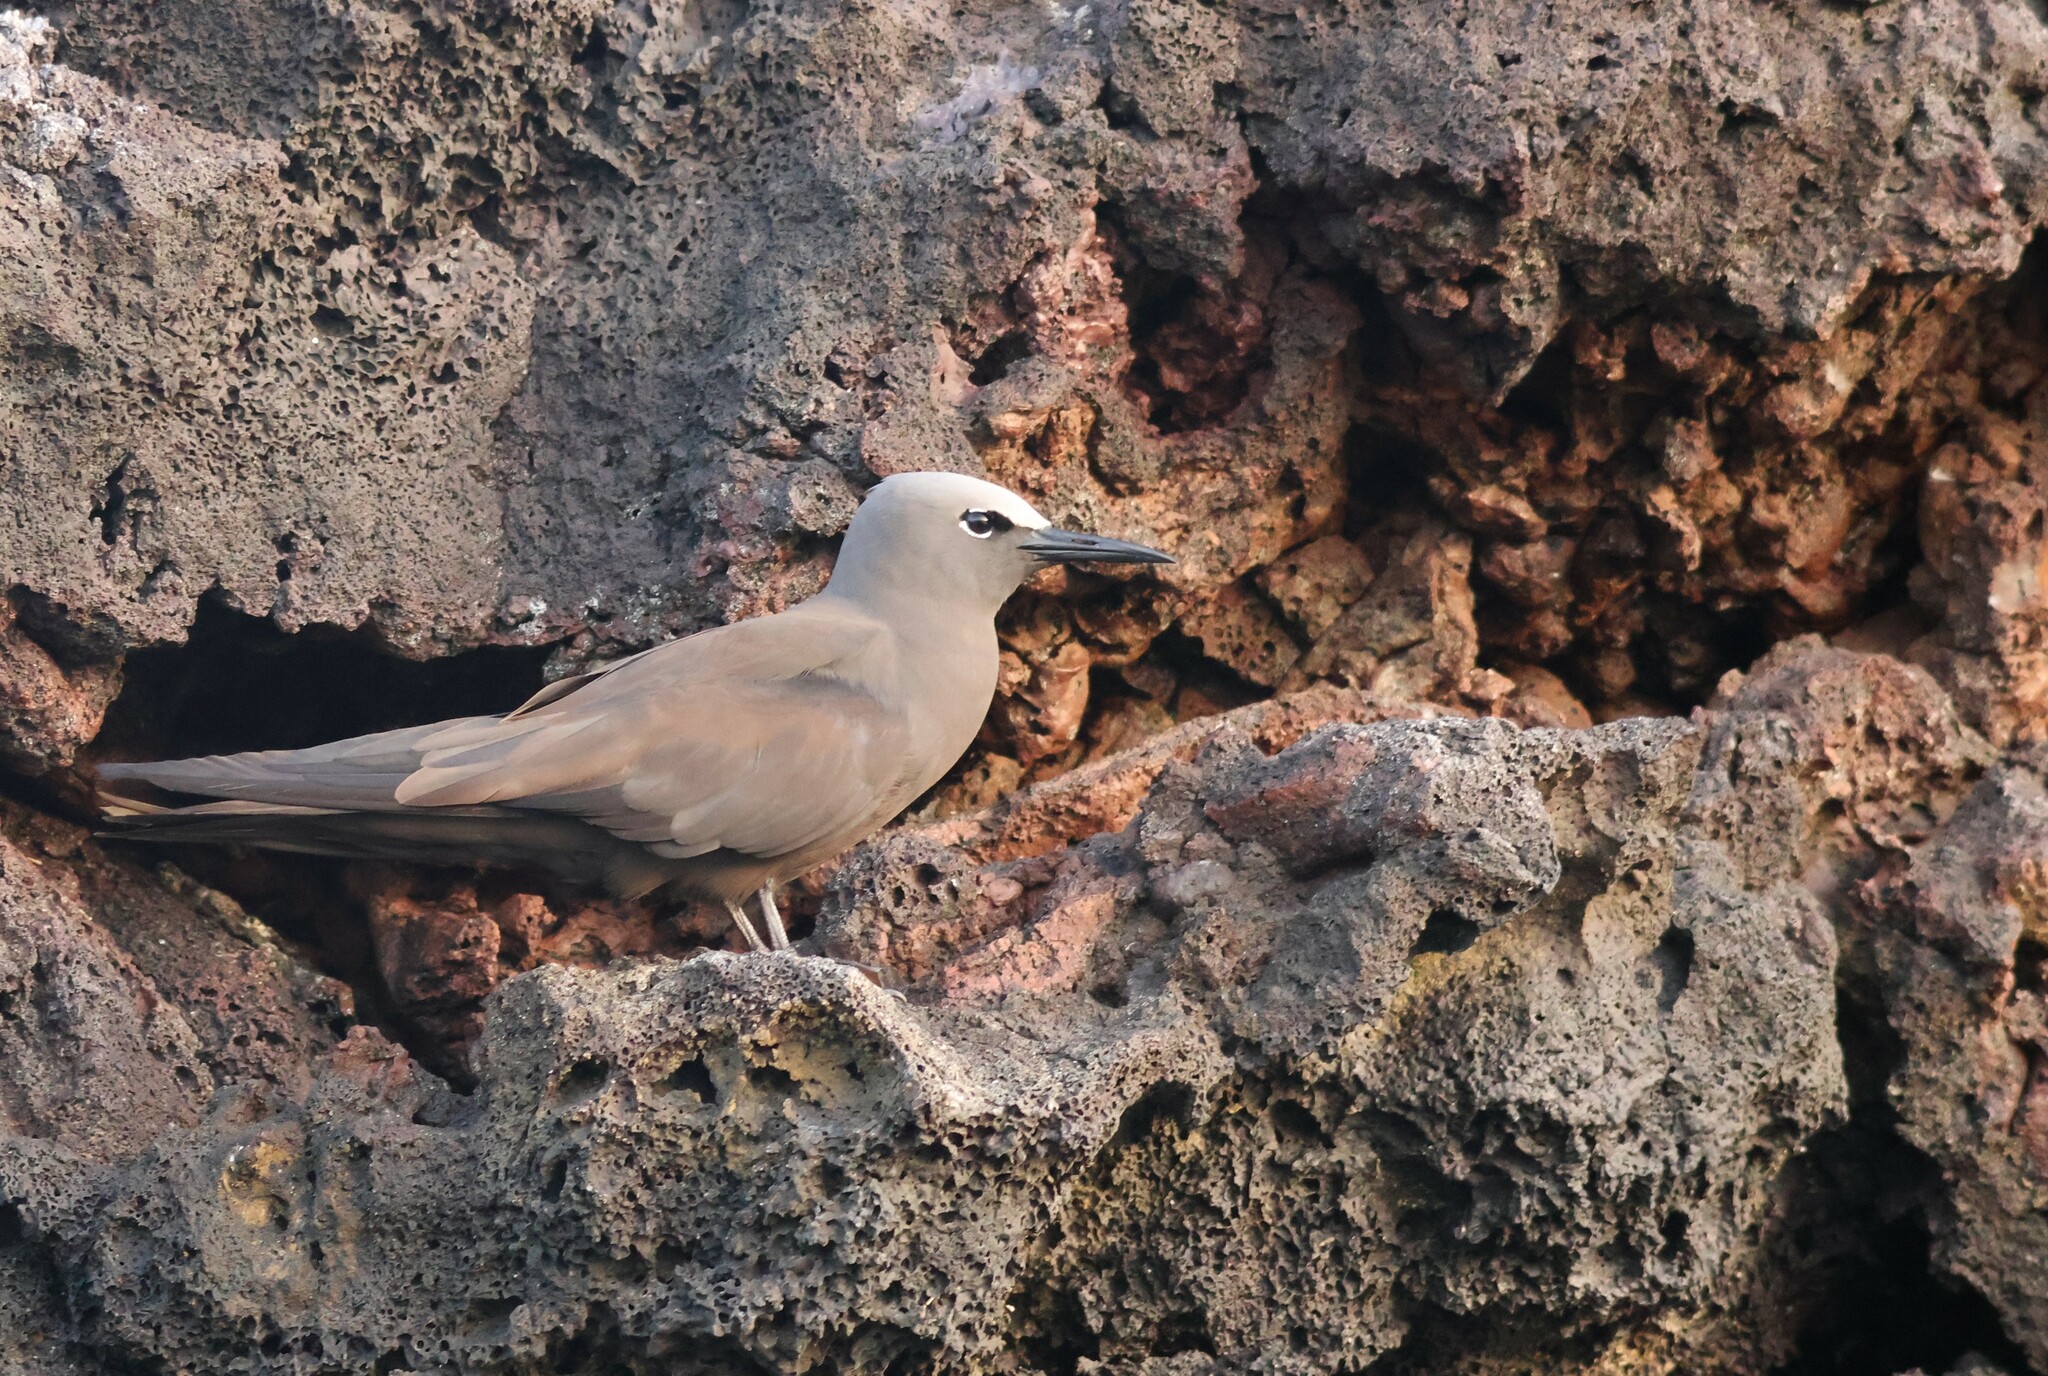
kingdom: Animalia
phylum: Chordata
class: Aves
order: Charadriiformes
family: Laridae
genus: Anous
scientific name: Anous stolidus
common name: Brown noddy
